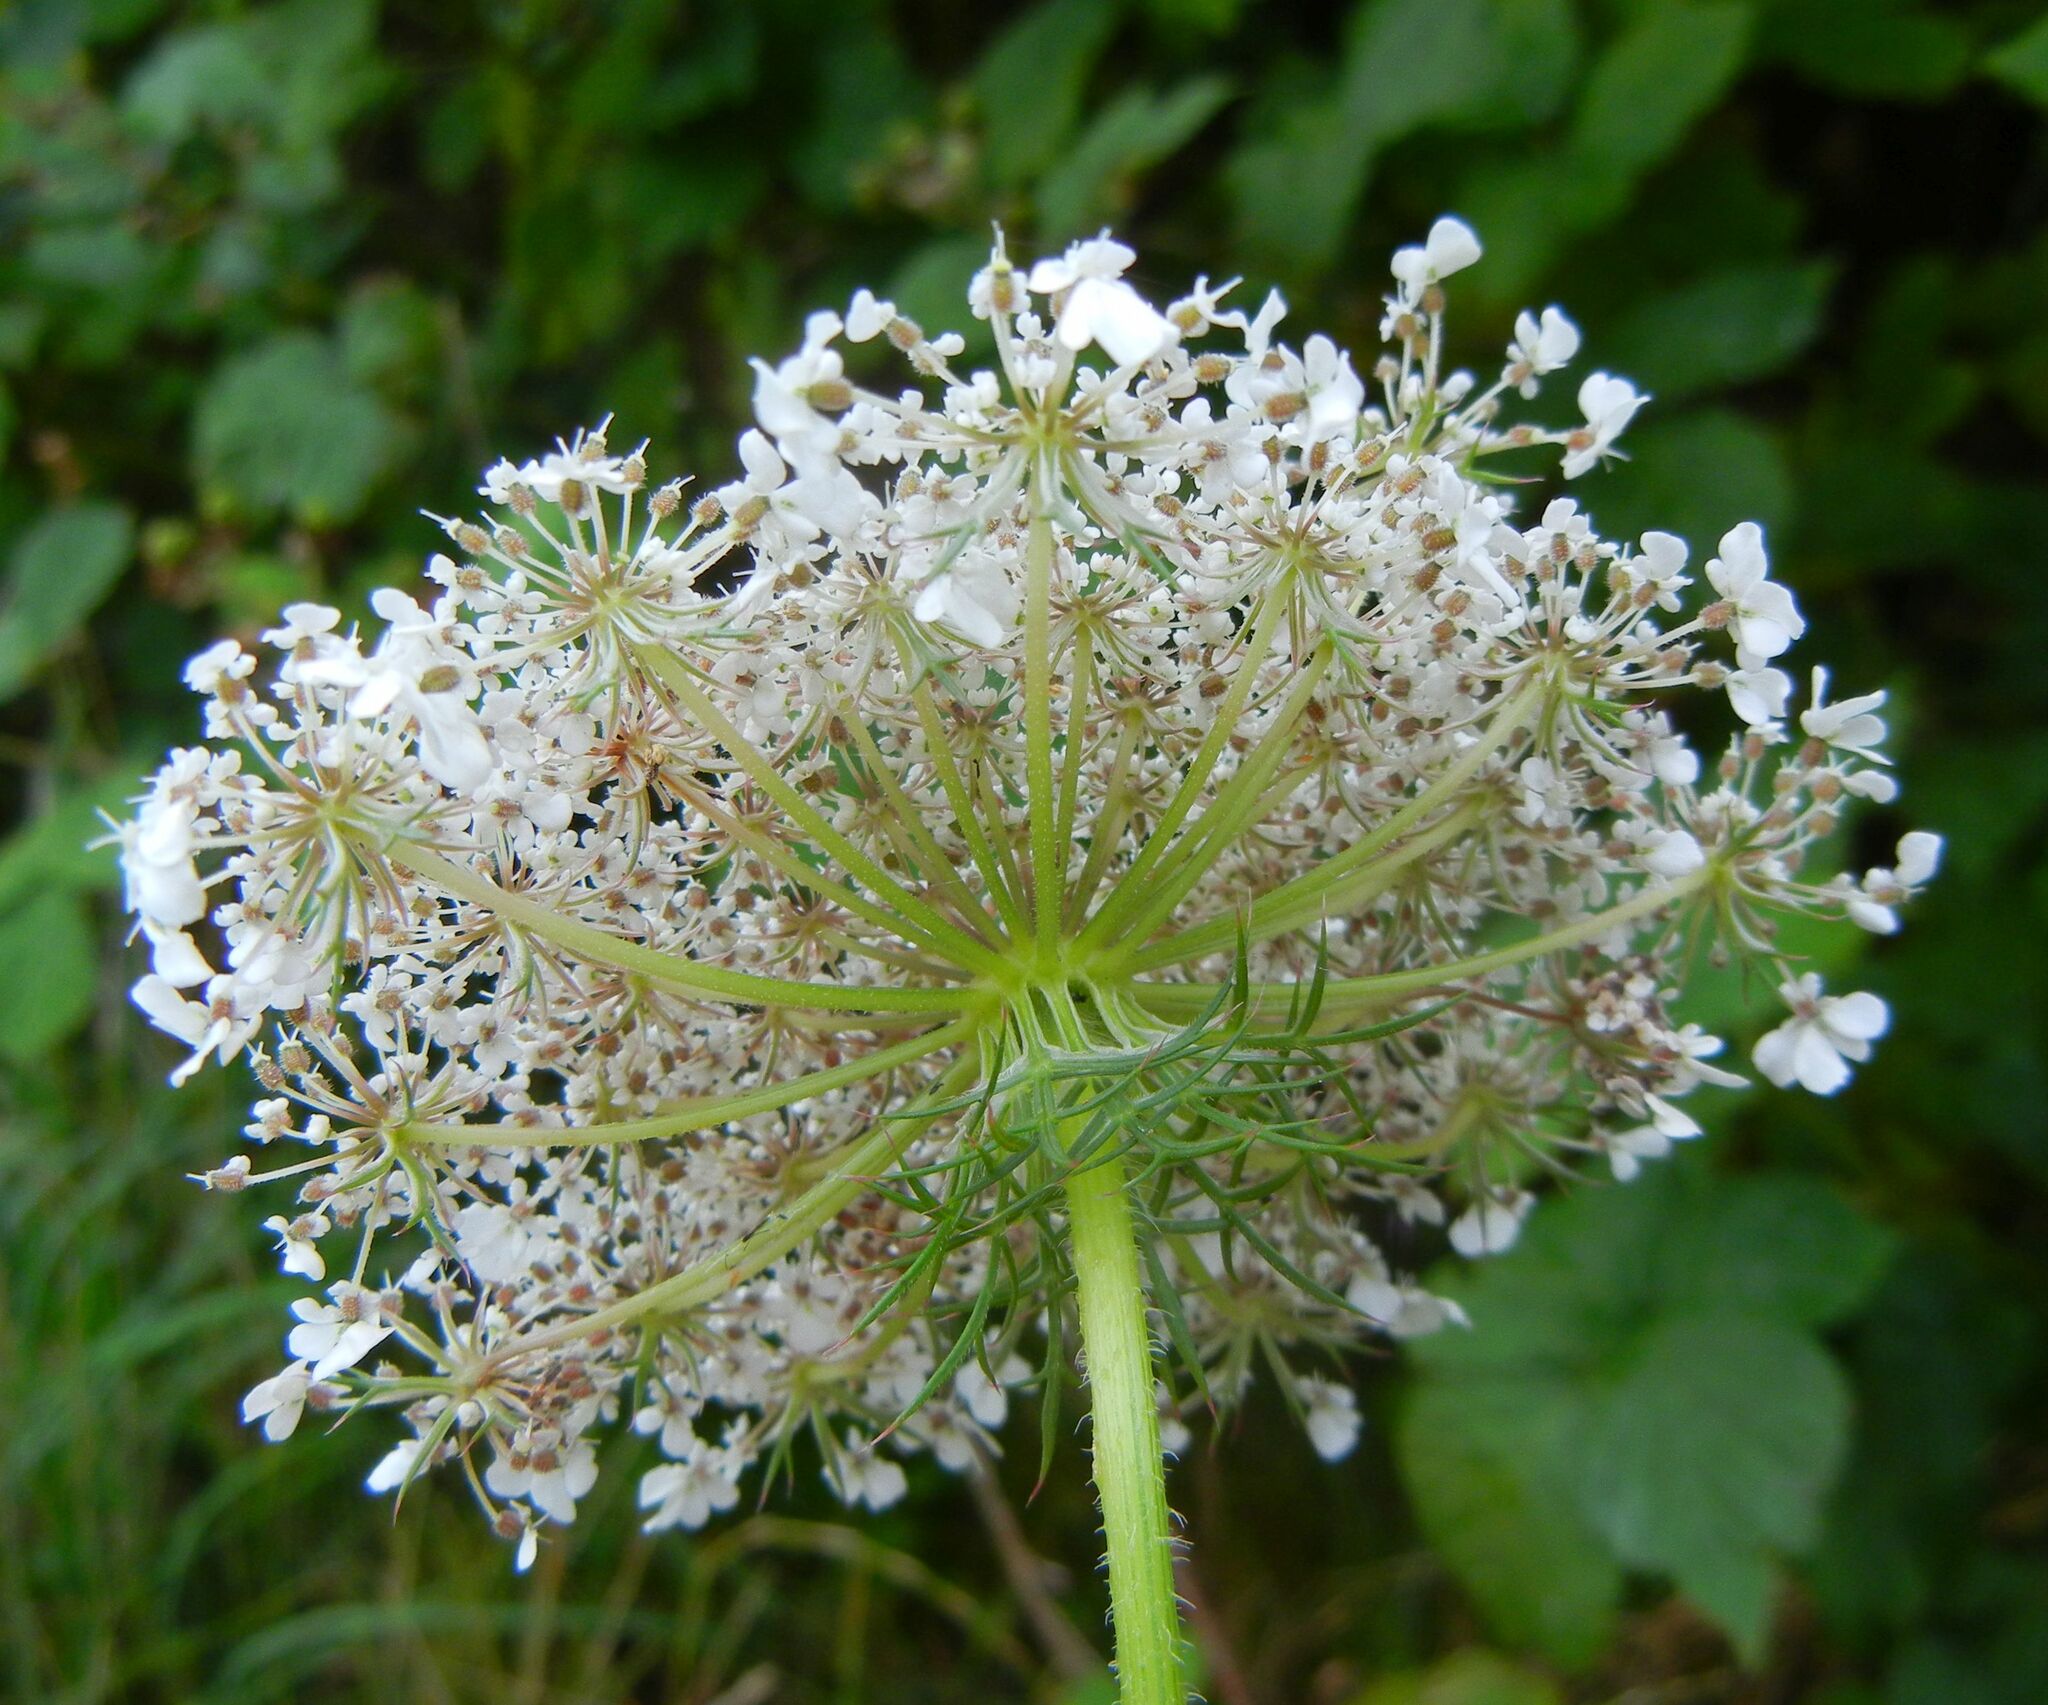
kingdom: Plantae
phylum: Tracheophyta
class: Magnoliopsida
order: Apiales
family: Apiaceae
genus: Daucus
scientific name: Daucus carota
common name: Wild carrot
